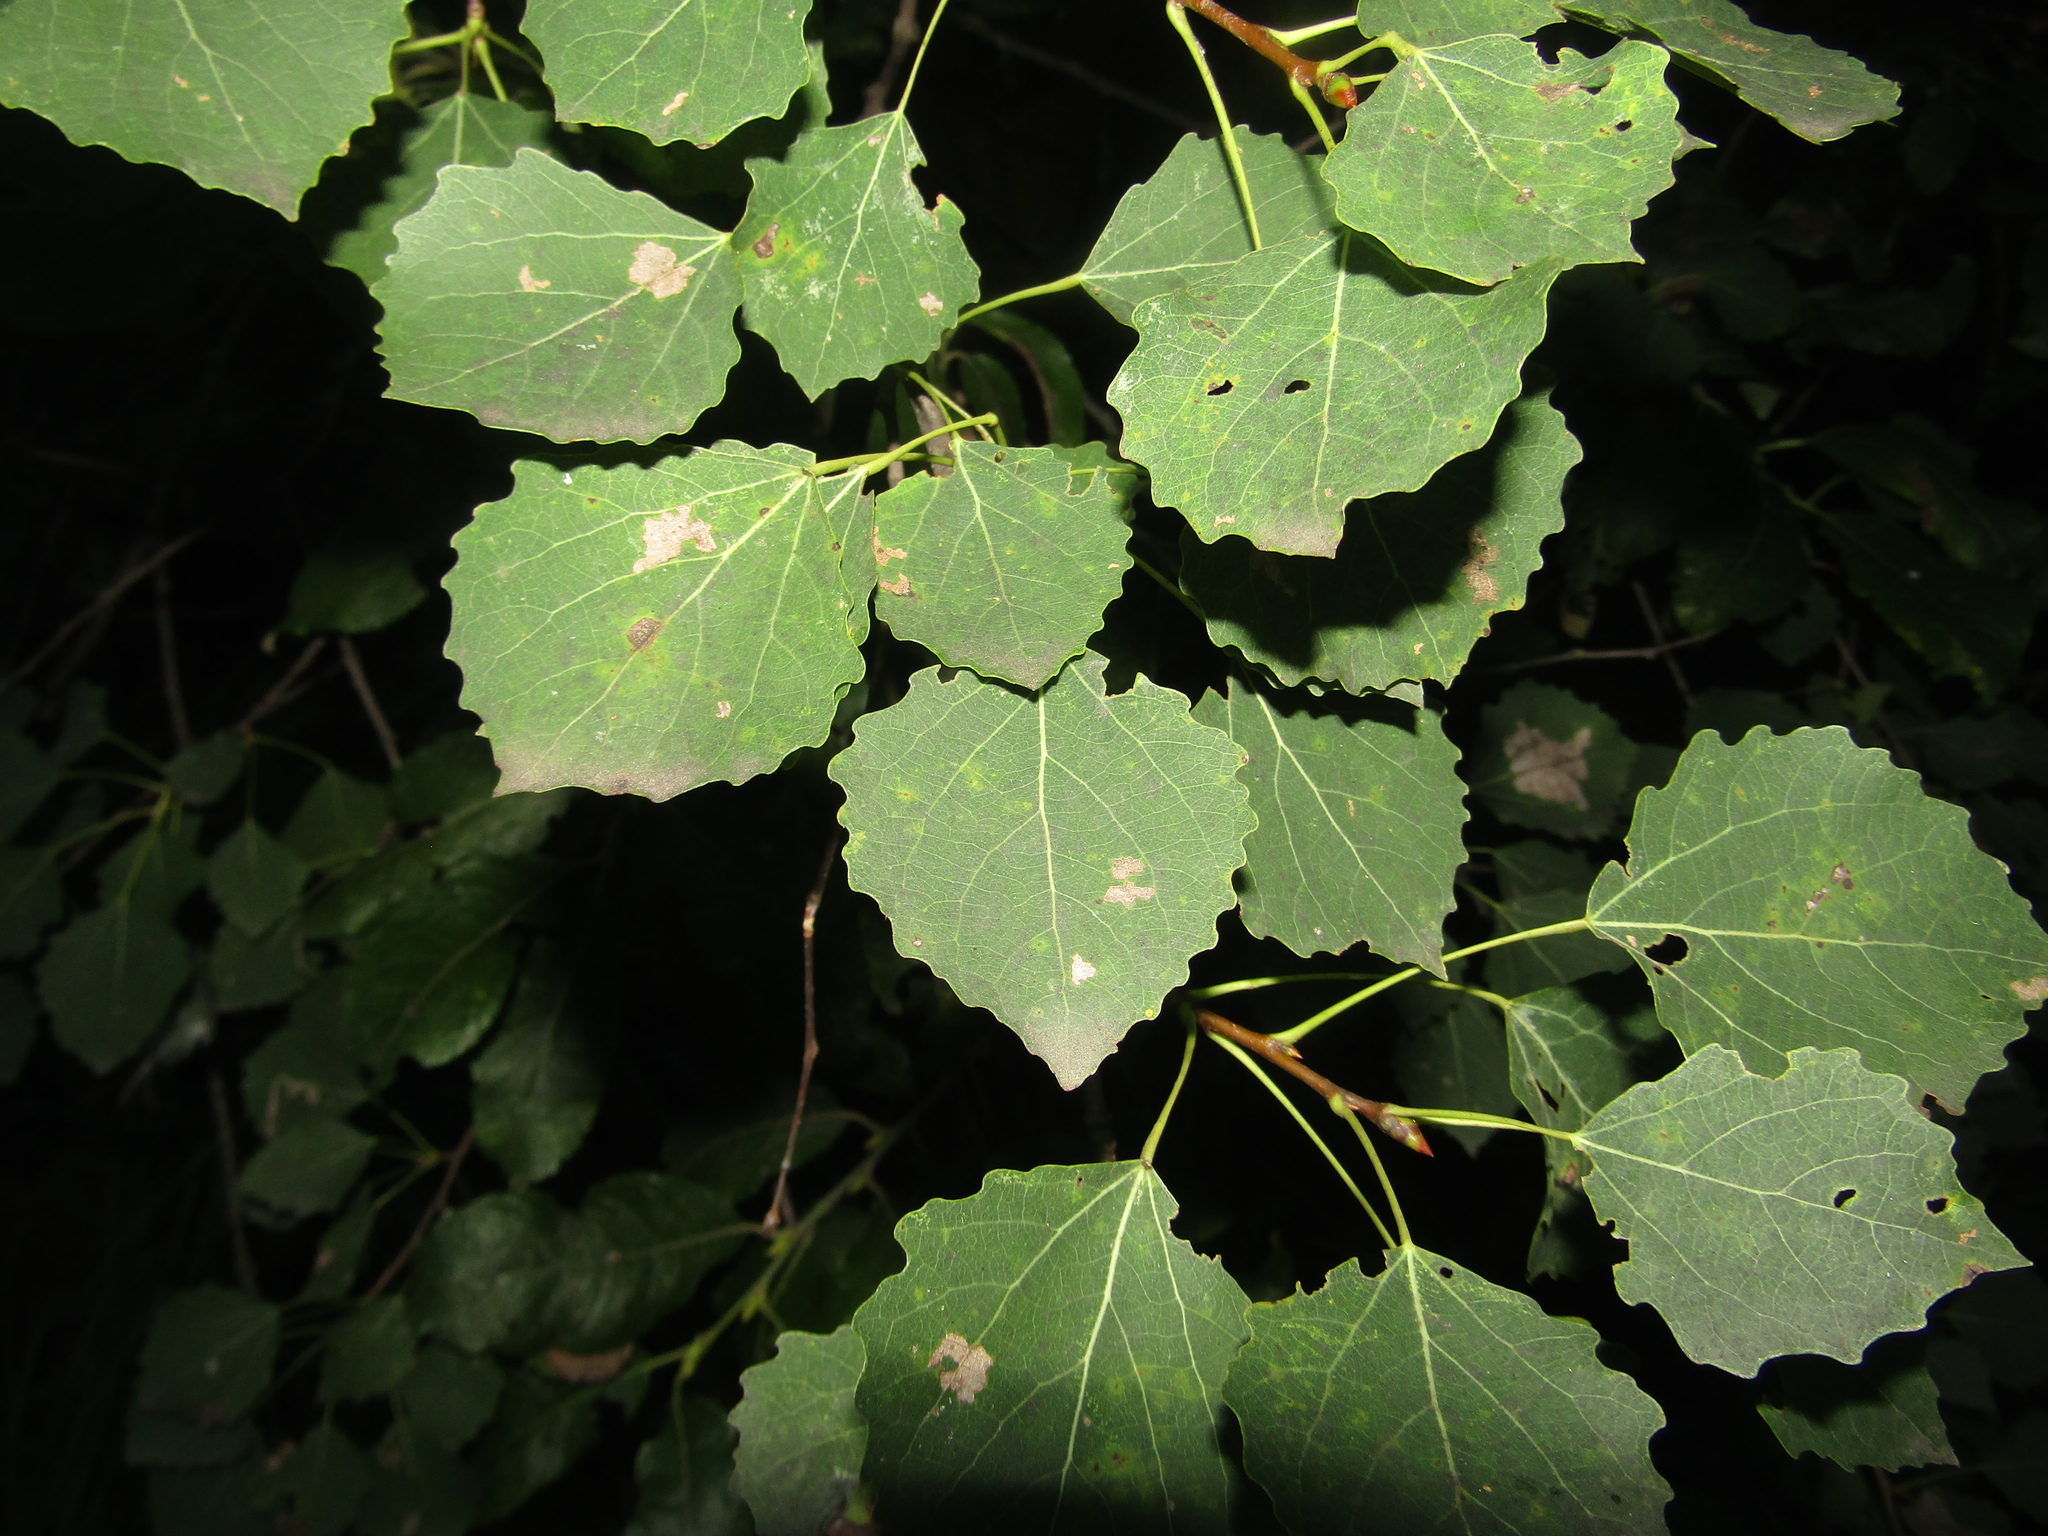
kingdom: Plantae
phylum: Tracheophyta
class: Magnoliopsida
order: Malpighiales
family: Salicaceae
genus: Populus
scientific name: Populus tremula
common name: European aspen
